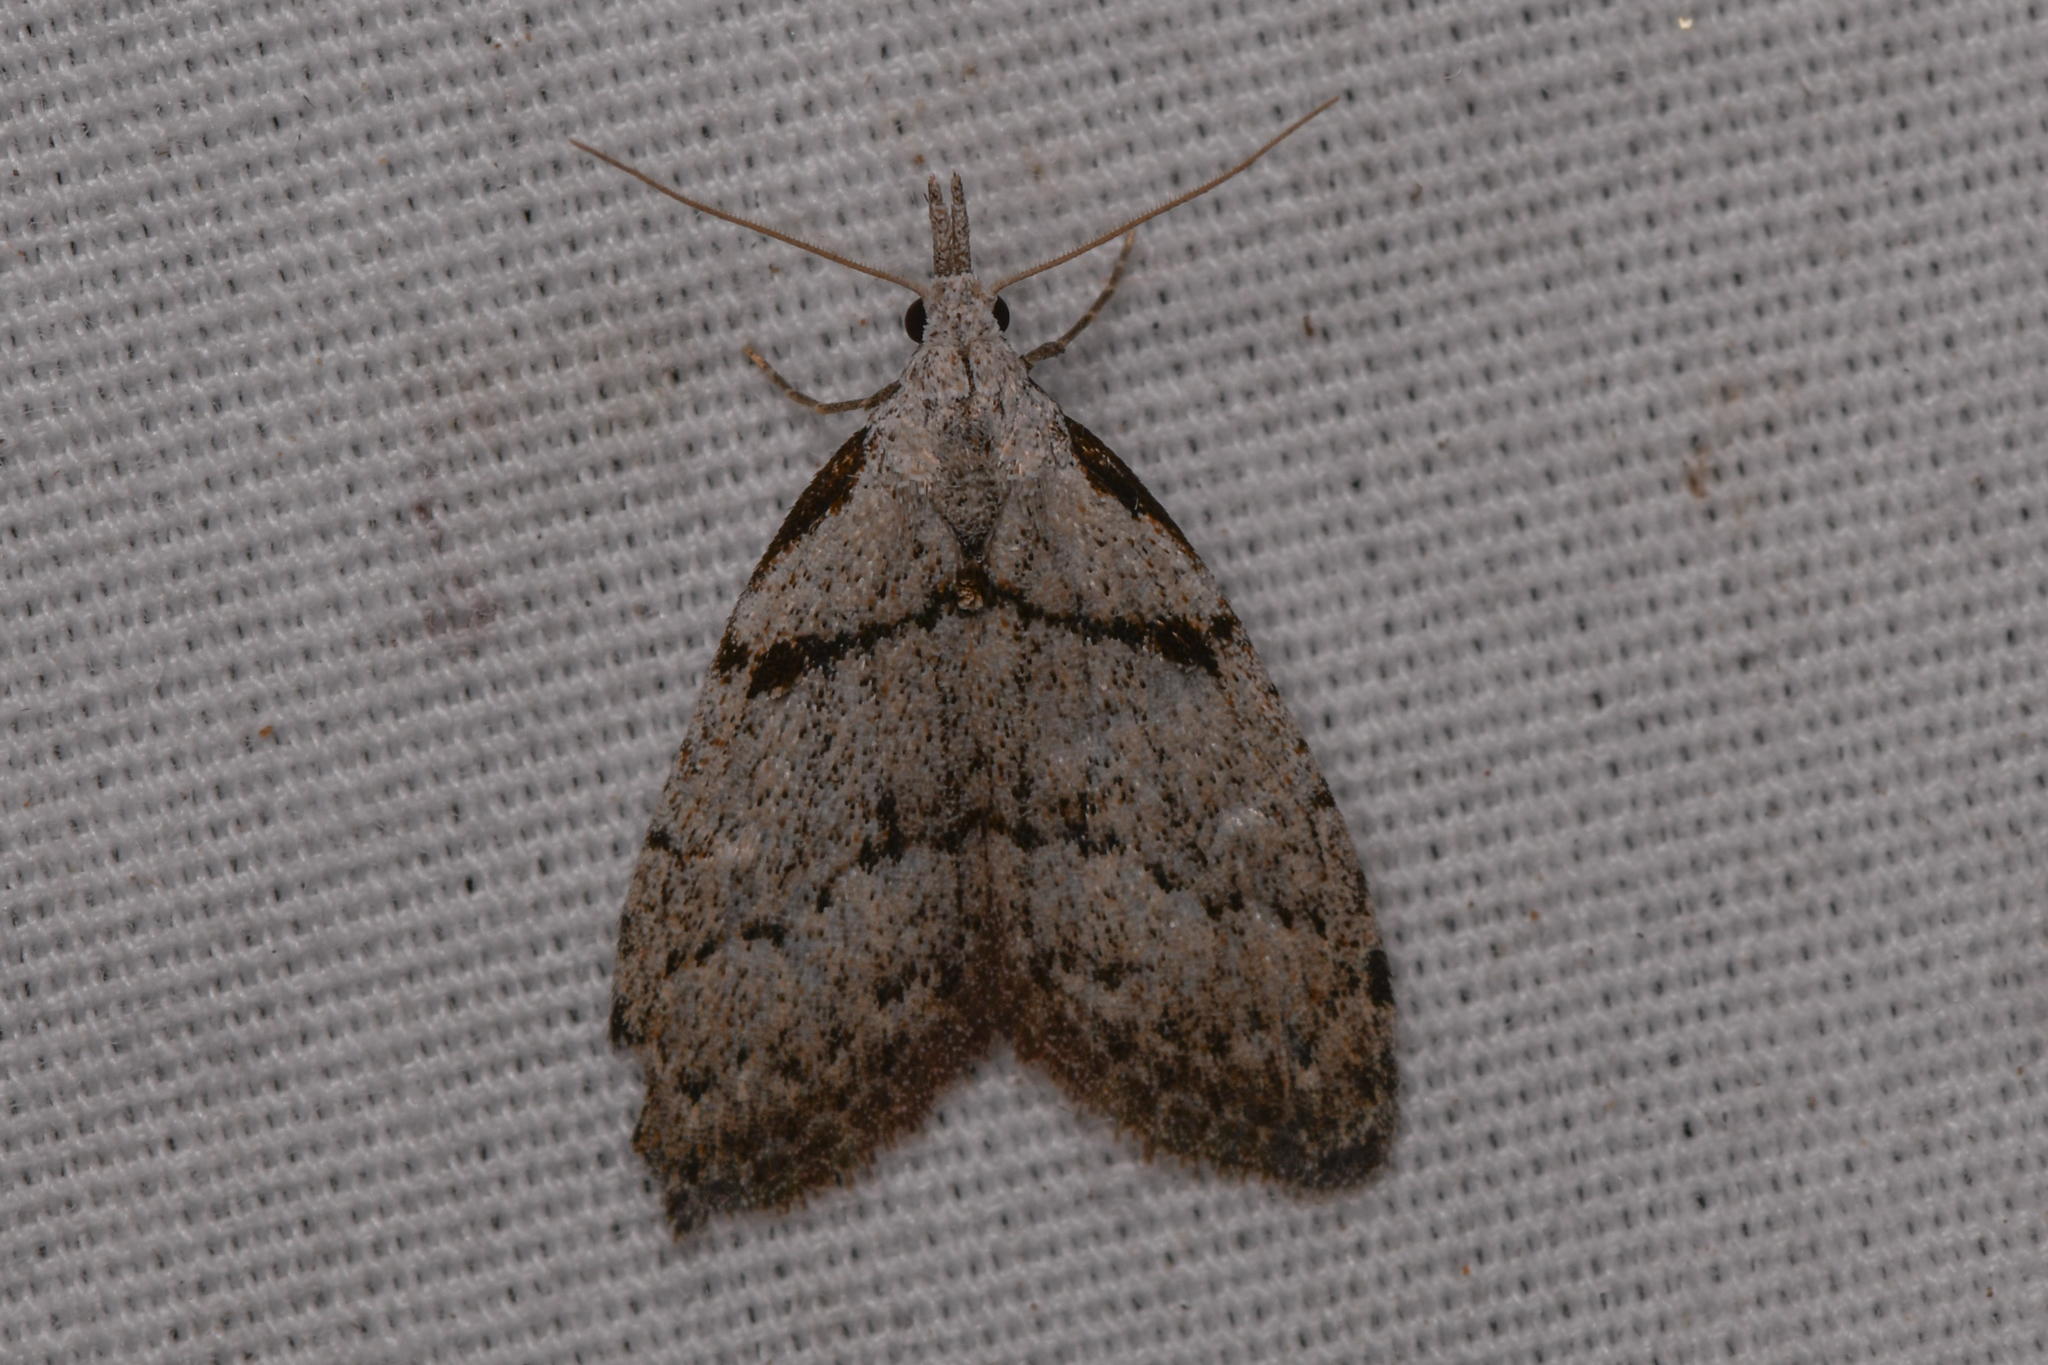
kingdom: Animalia
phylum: Arthropoda
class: Insecta
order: Lepidoptera
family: Nolidae
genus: Nola
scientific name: Nola minna
